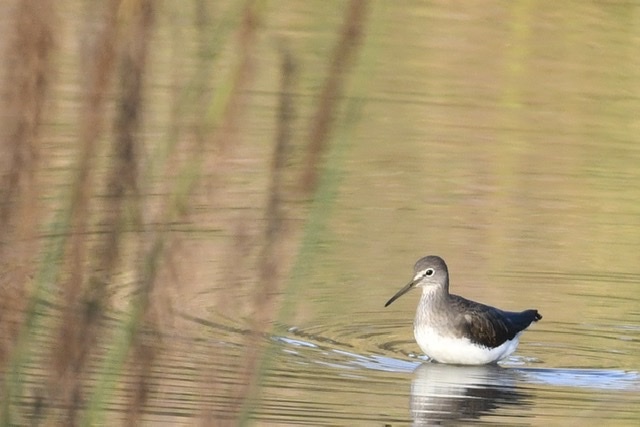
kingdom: Animalia
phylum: Chordata
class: Aves
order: Charadriiformes
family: Scolopacidae
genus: Tringa
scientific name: Tringa ochropus
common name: Green sandpiper
